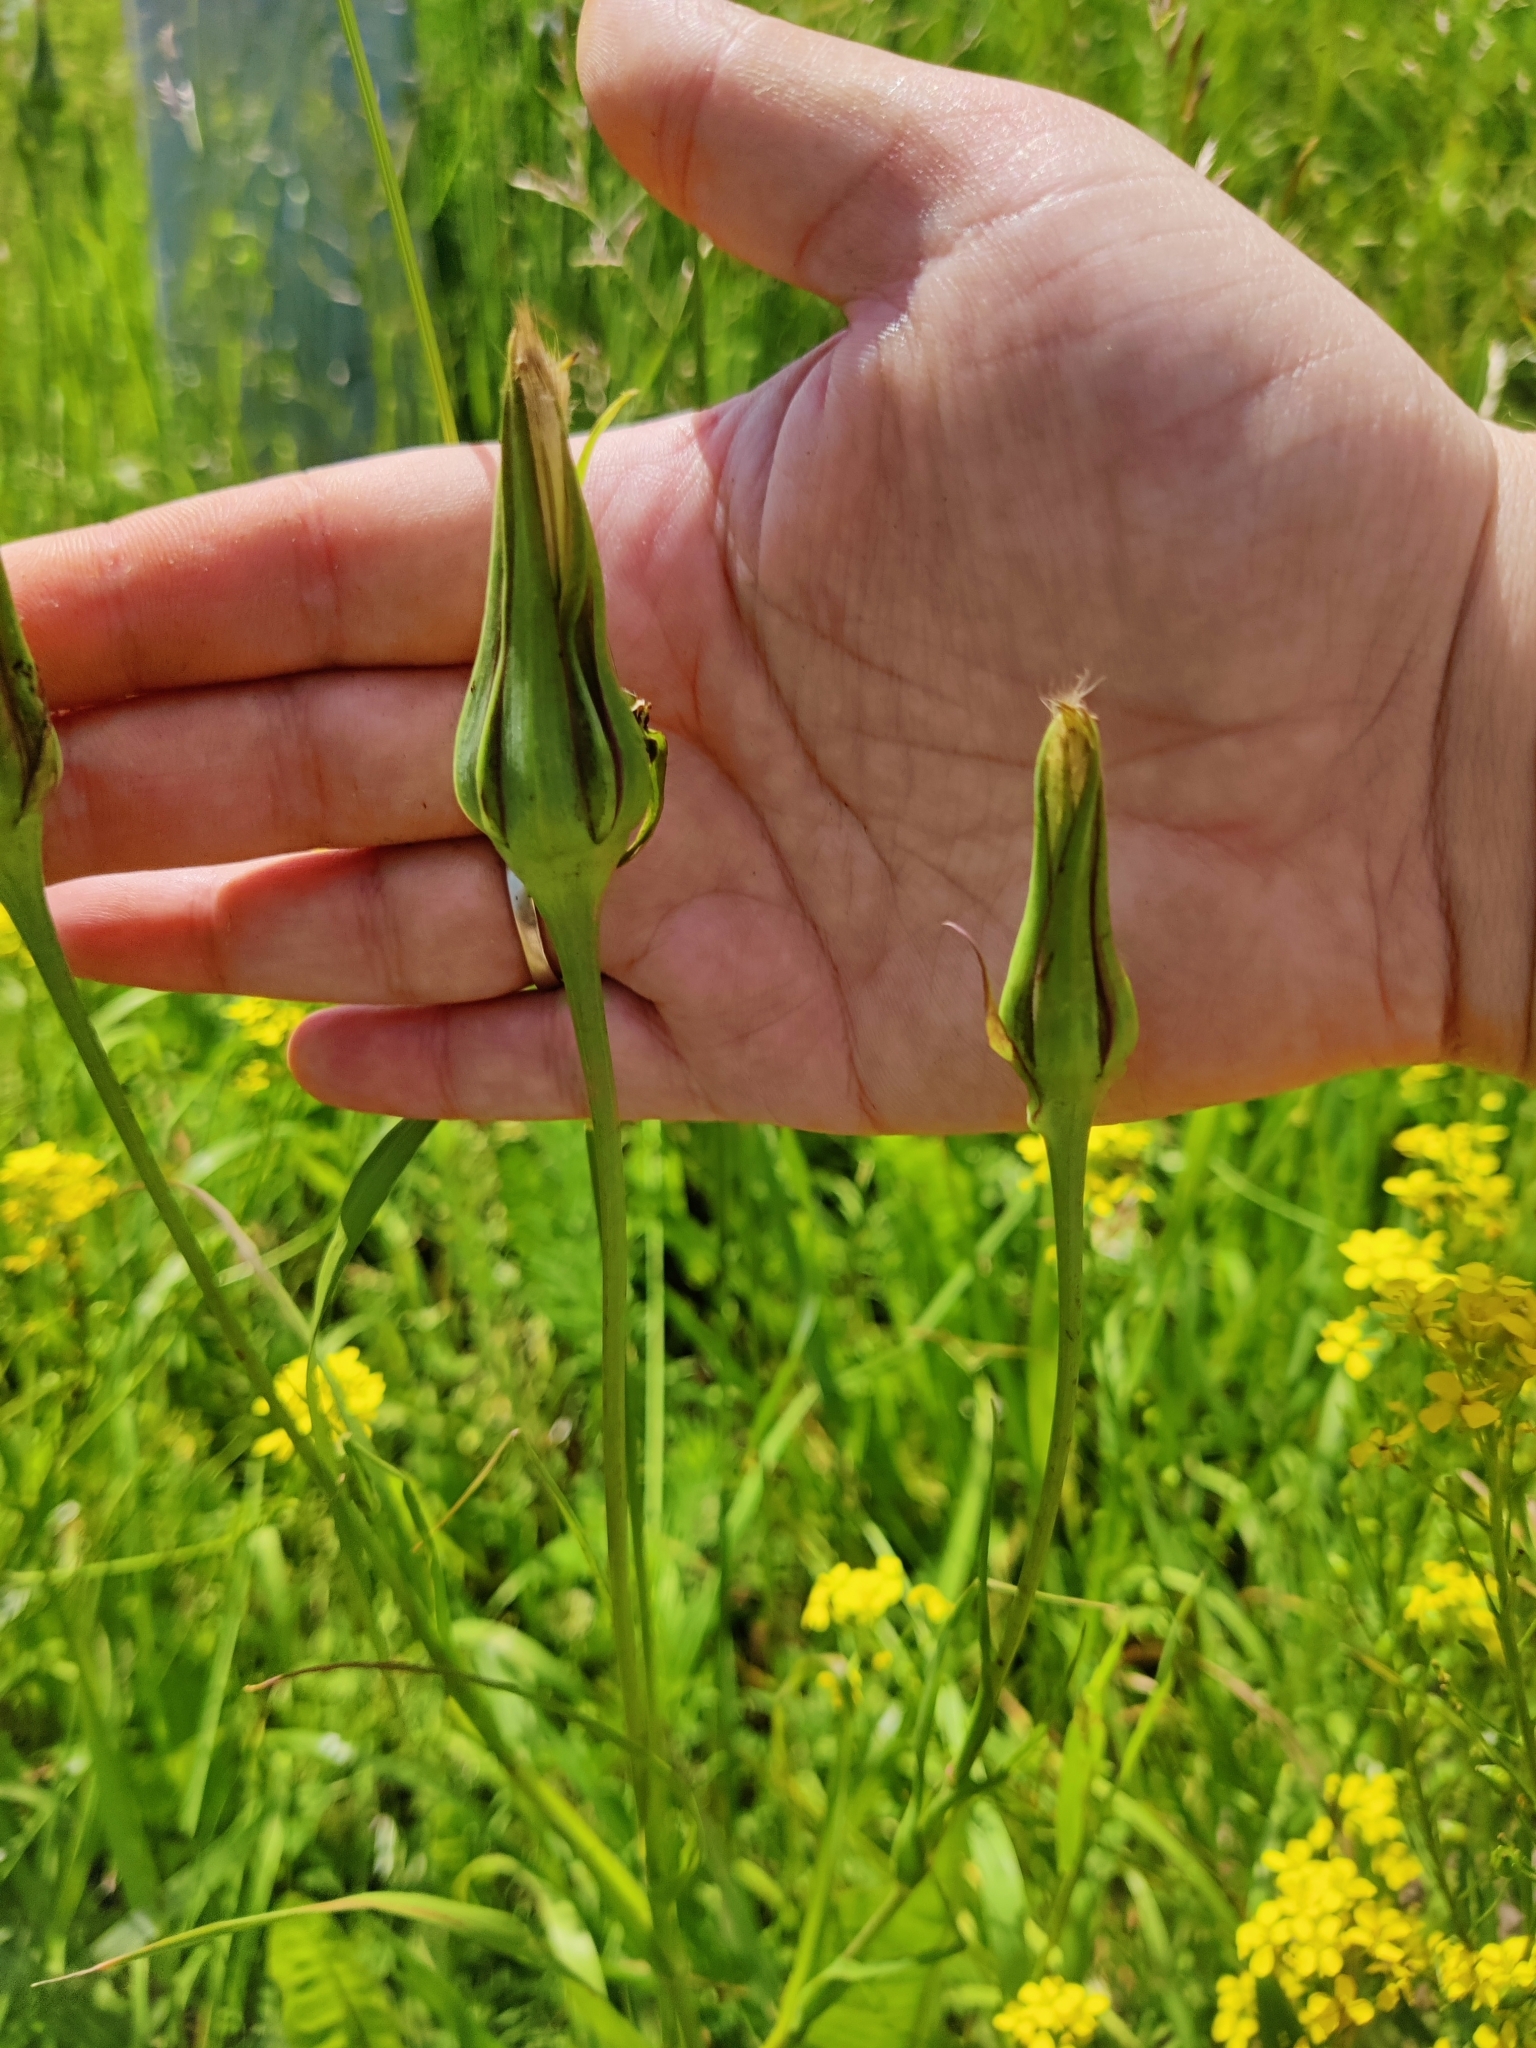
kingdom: Plantae
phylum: Tracheophyta
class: Magnoliopsida
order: Asterales
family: Asteraceae
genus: Tragopogon
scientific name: Tragopogon pratensis
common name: Goat's-beard
